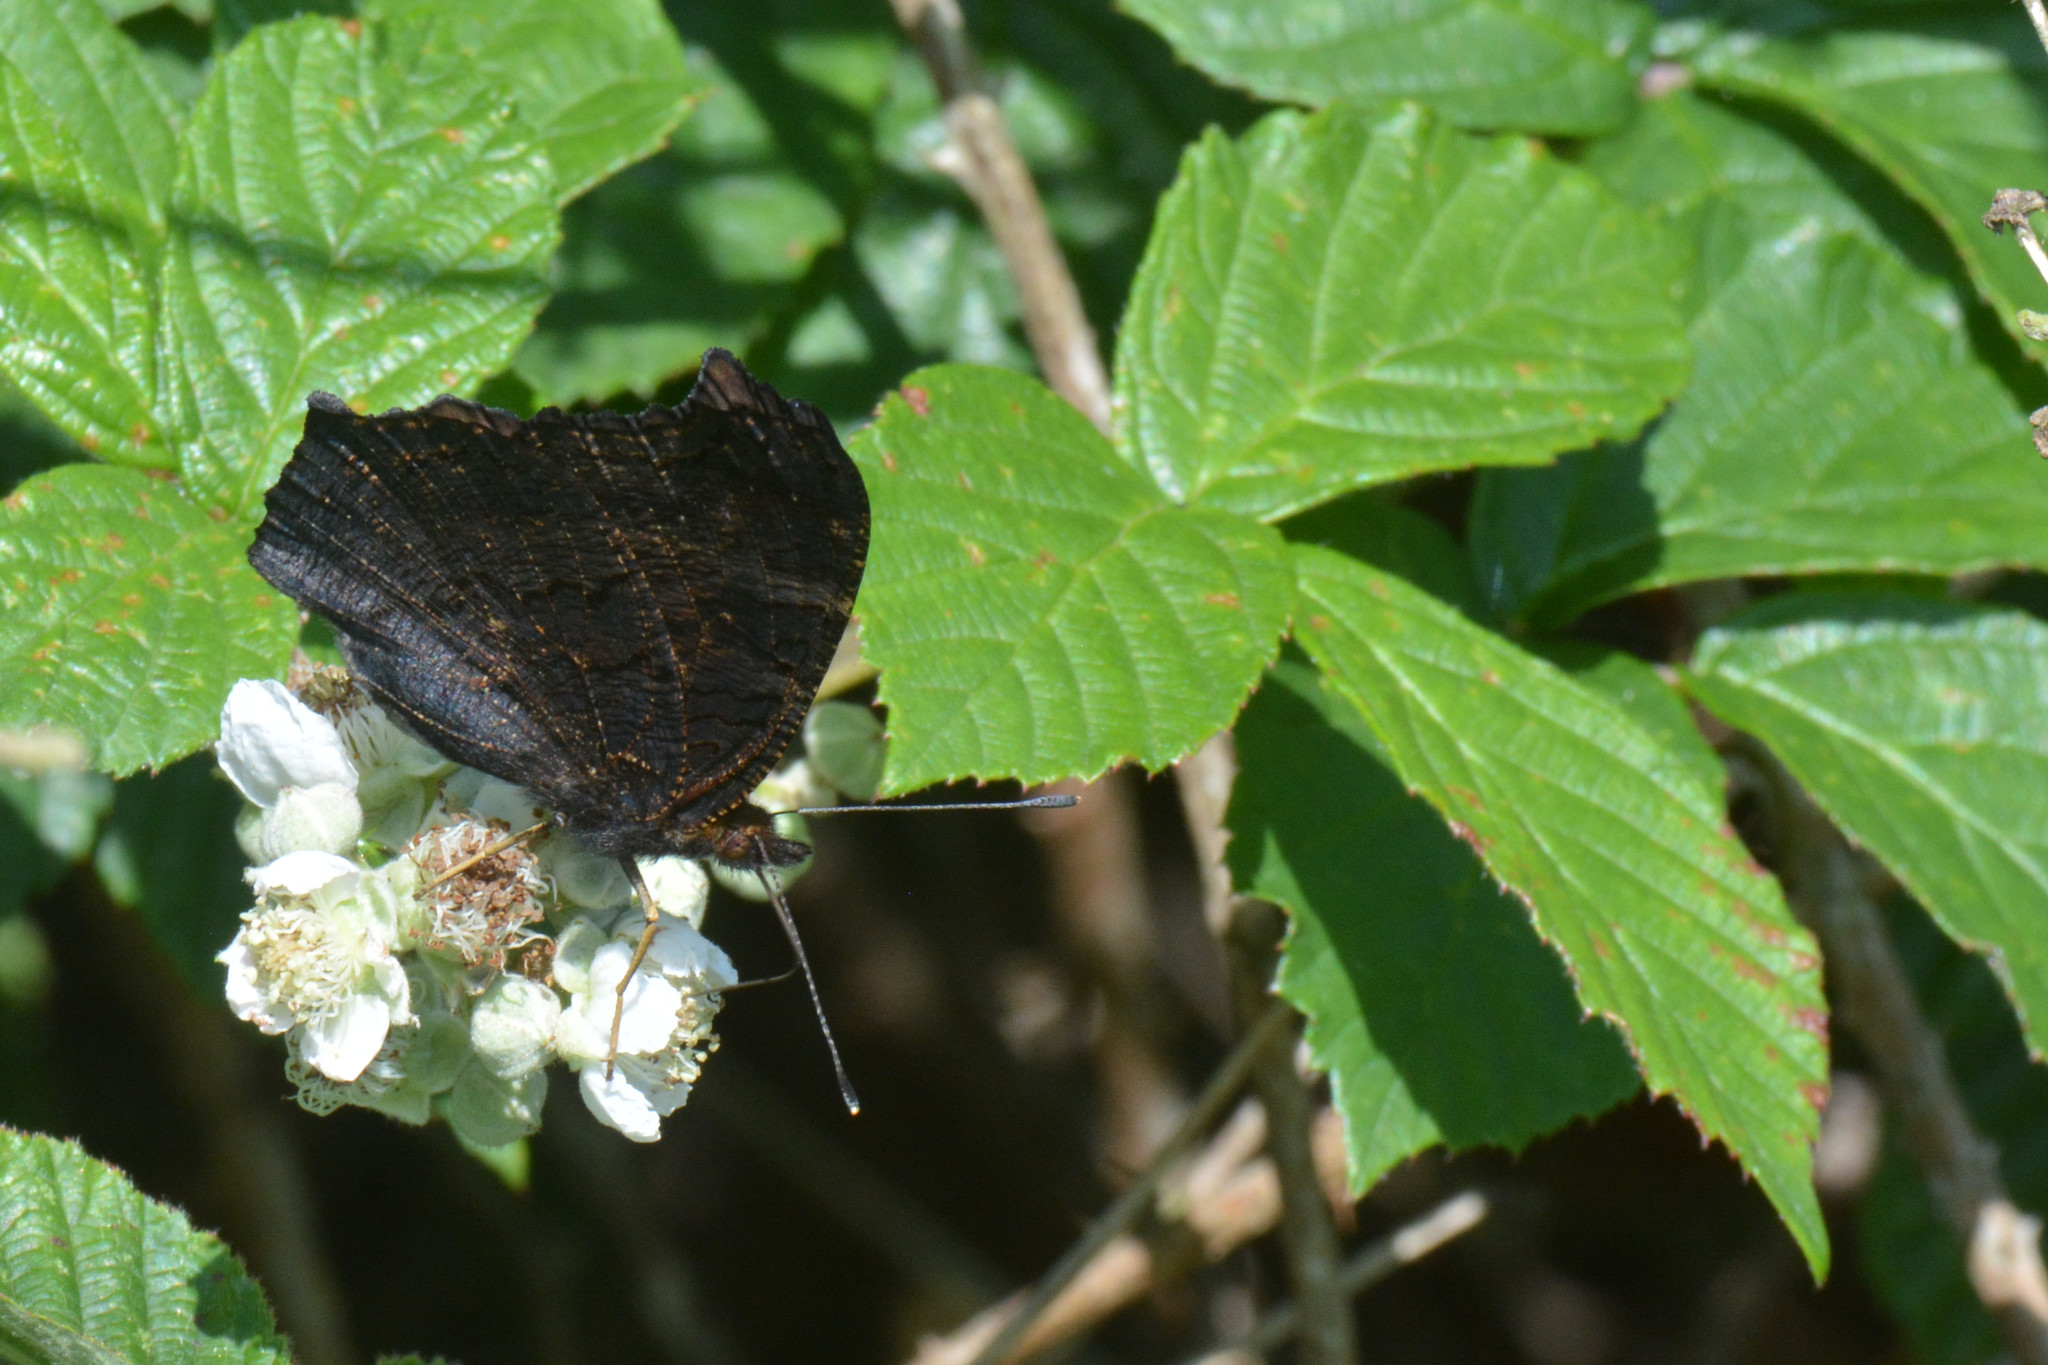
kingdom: Animalia
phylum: Arthropoda
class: Insecta
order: Lepidoptera
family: Nymphalidae
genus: Aglais
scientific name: Aglais io
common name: Peacock
